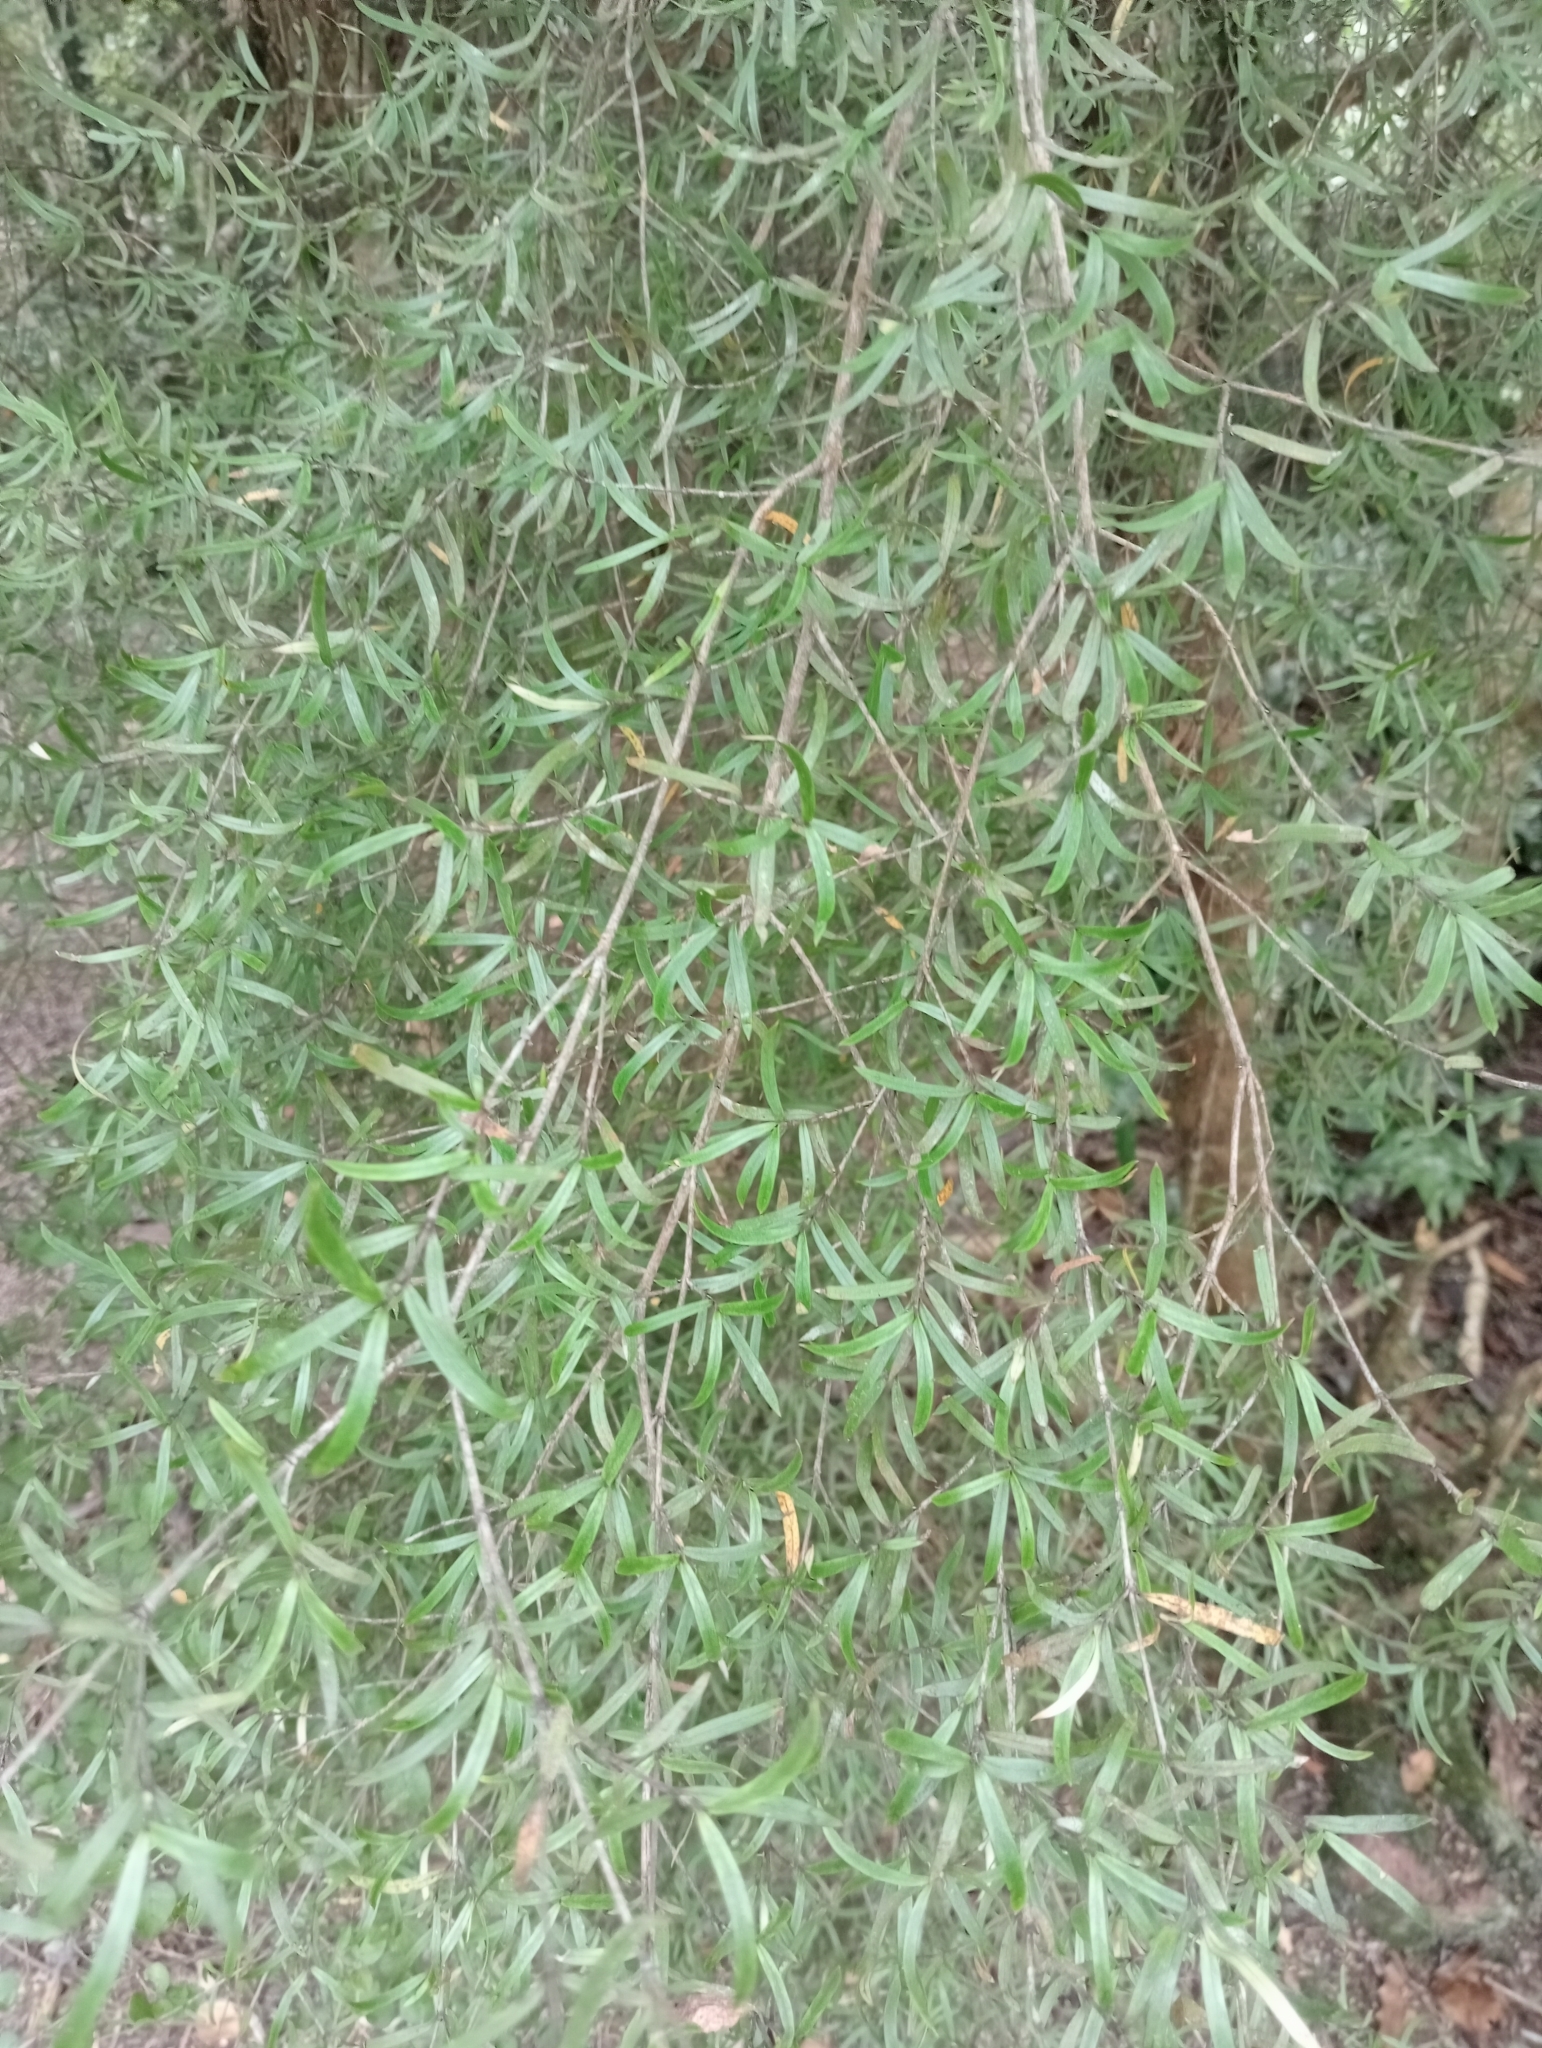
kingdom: Plantae
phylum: Tracheophyta
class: Magnoliopsida
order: Gentianales
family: Rubiaceae
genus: Coprosma
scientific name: Coprosma linariifolia
